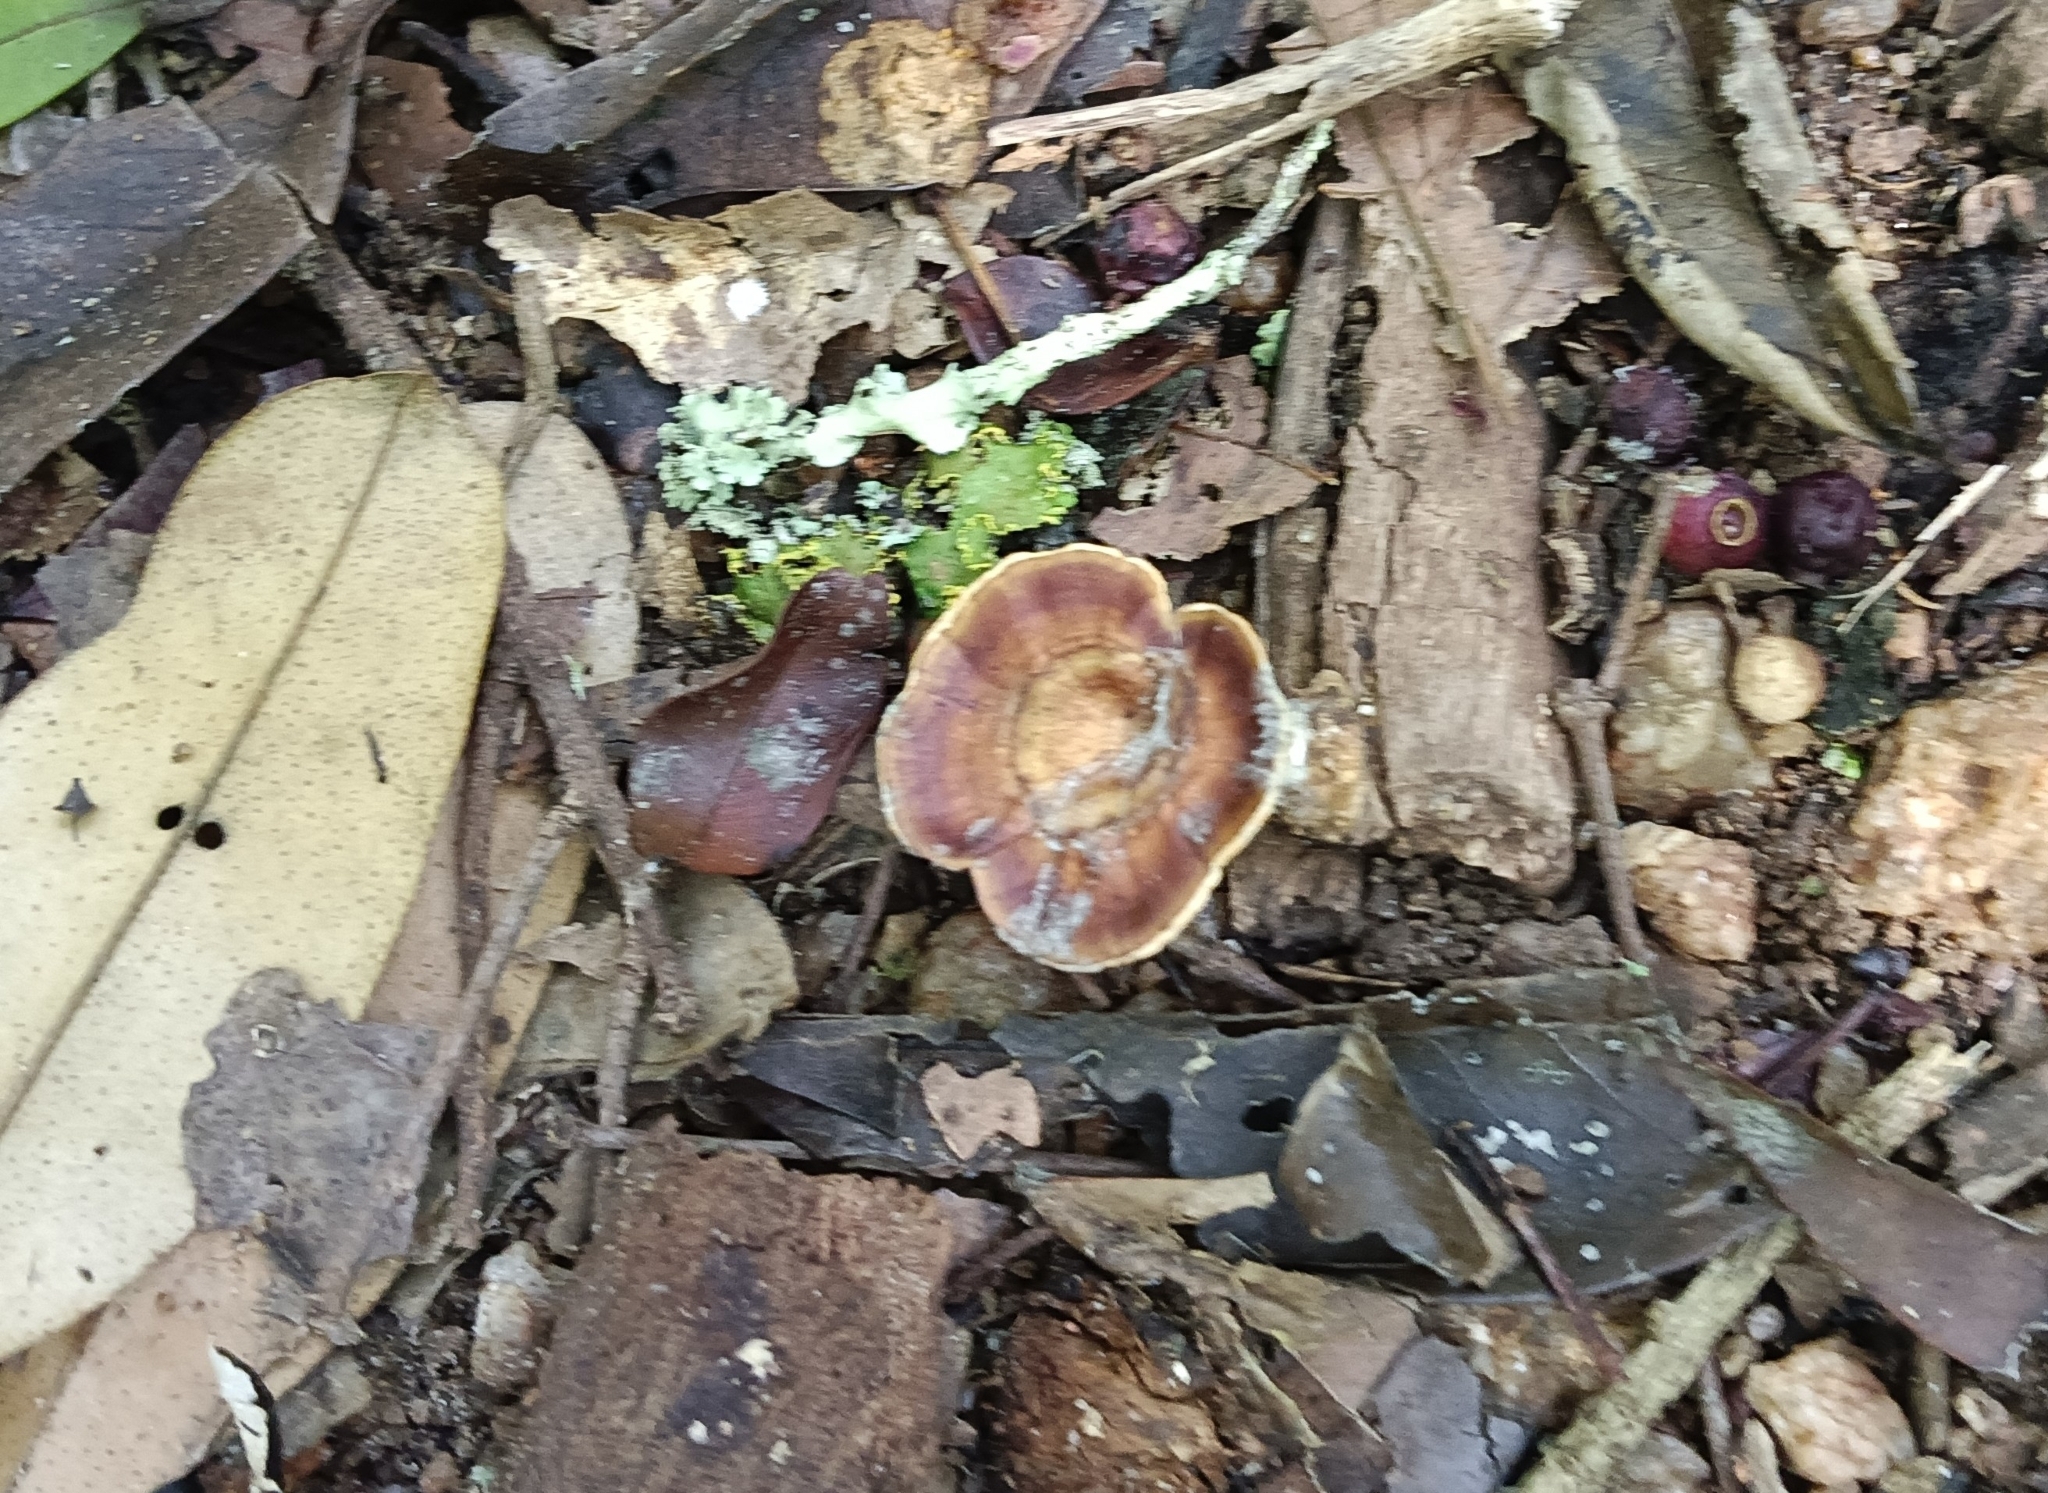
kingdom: Fungi
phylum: Basidiomycota
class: Agaricomycetes
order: Polyporales
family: Polyporaceae
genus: Microporus
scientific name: Microporus xanthopus
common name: Yellow-stemmed micropore
